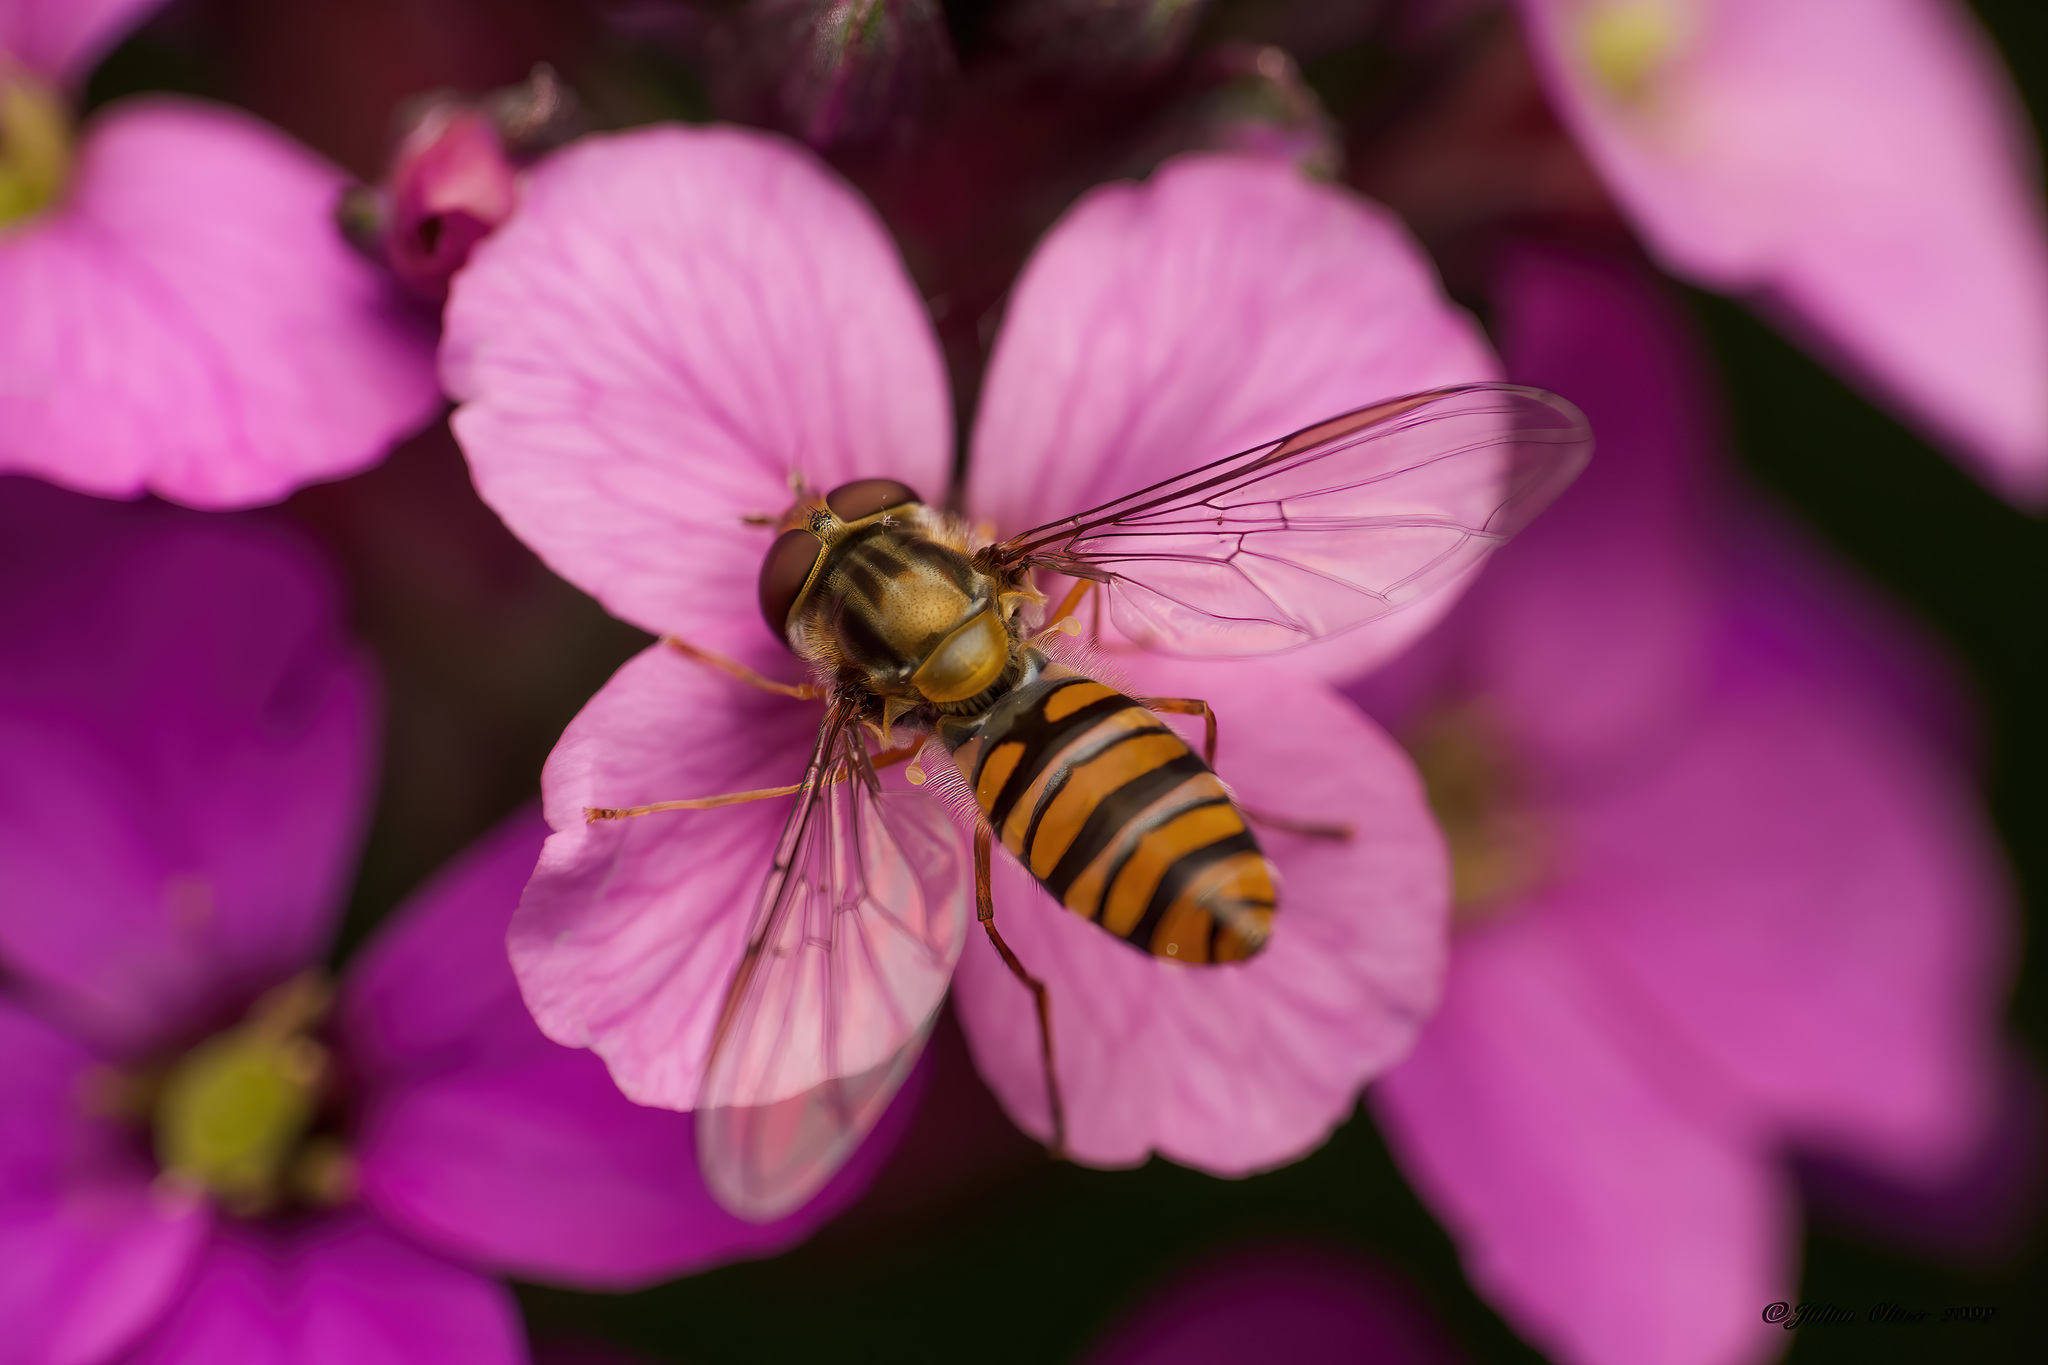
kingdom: Animalia
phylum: Arthropoda
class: Insecta
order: Diptera
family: Syrphidae
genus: Episyrphus
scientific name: Episyrphus balteatus
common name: Marmalade hoverfly
